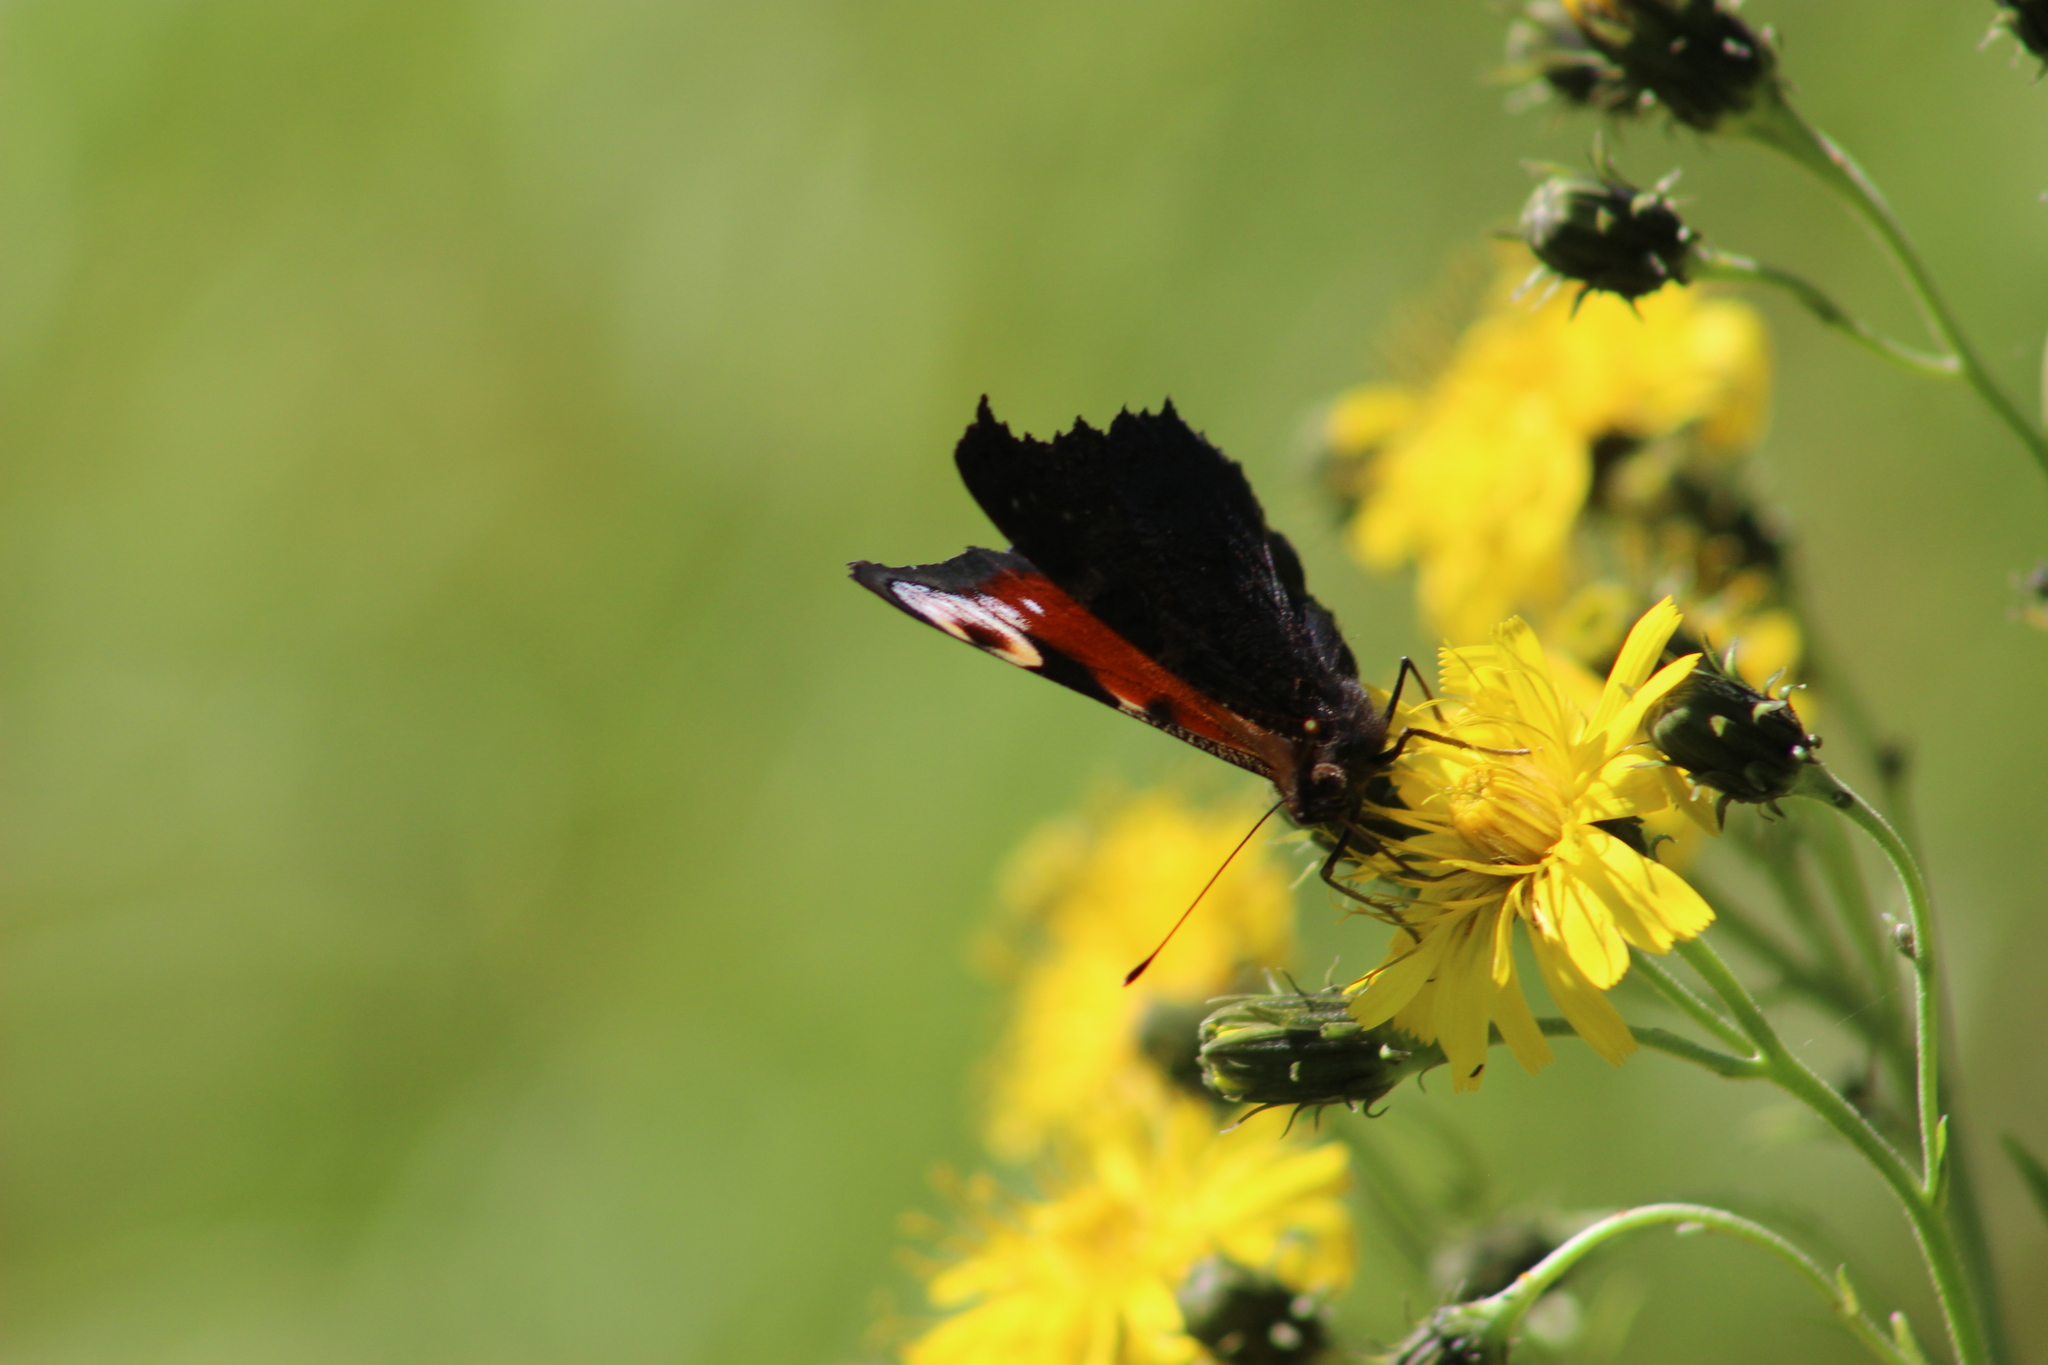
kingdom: Animalia
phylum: Arthropoda
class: Insecta
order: Lepidoptera
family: Nymphalidae
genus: Aglais
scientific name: Aglais io
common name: Peacock
